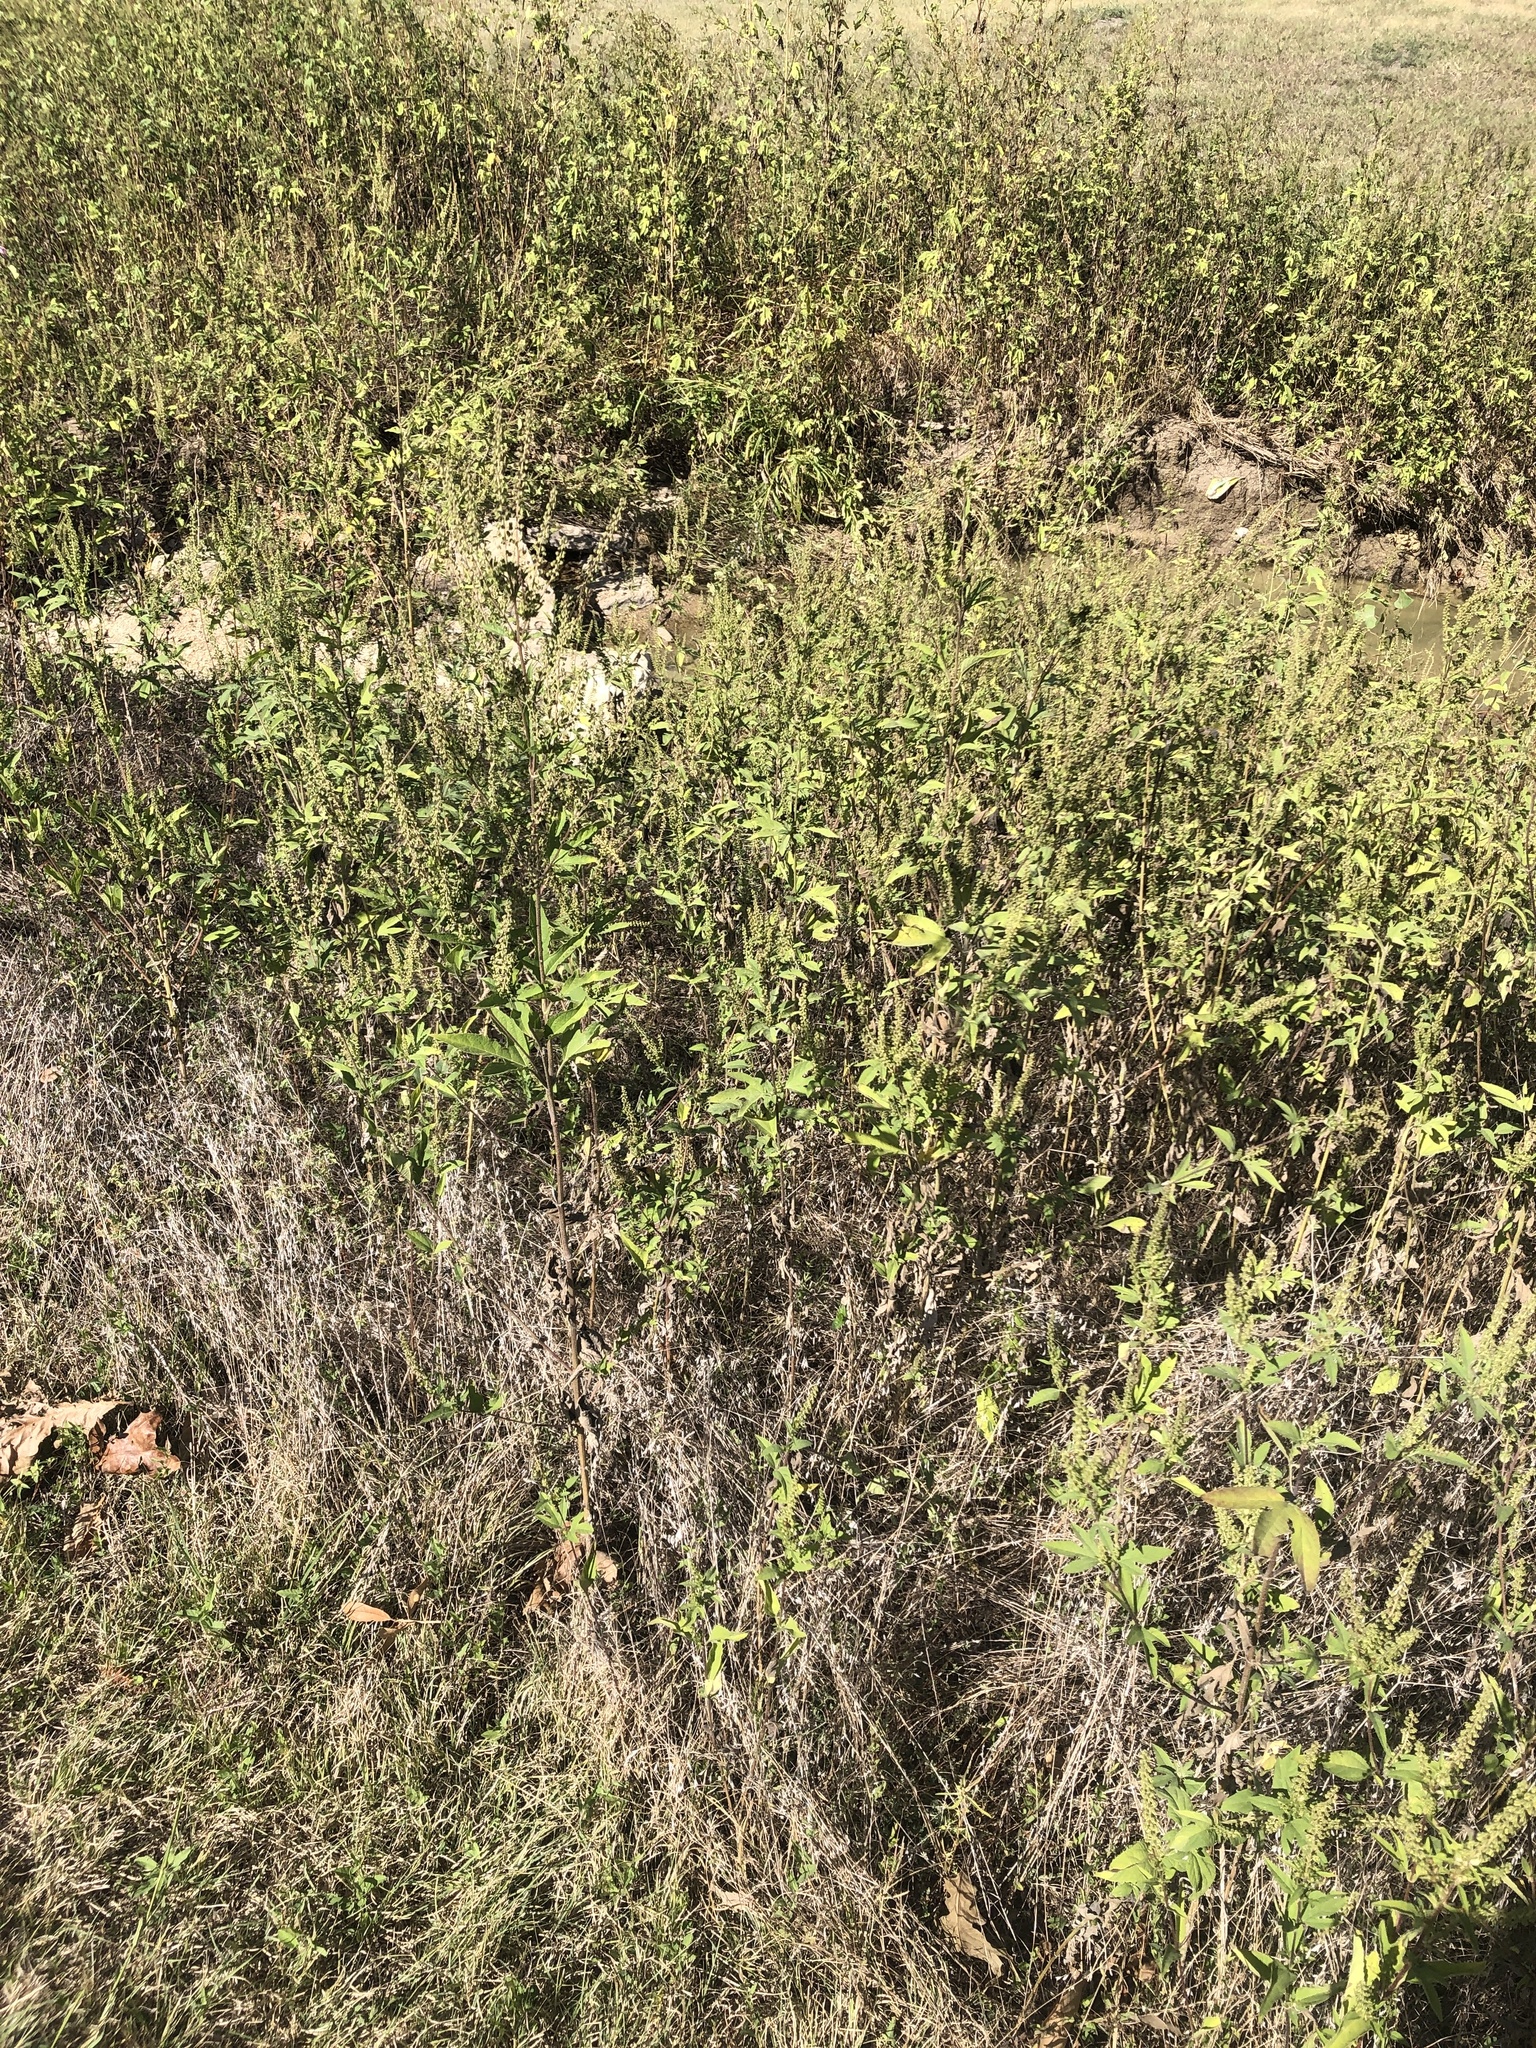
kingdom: Plantae
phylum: Tracheophyta
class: Magnoliopsida
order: Asterales
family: Asteraceae
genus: Ambrosia
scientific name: Ambrosia trifida
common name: Giant ragweed
